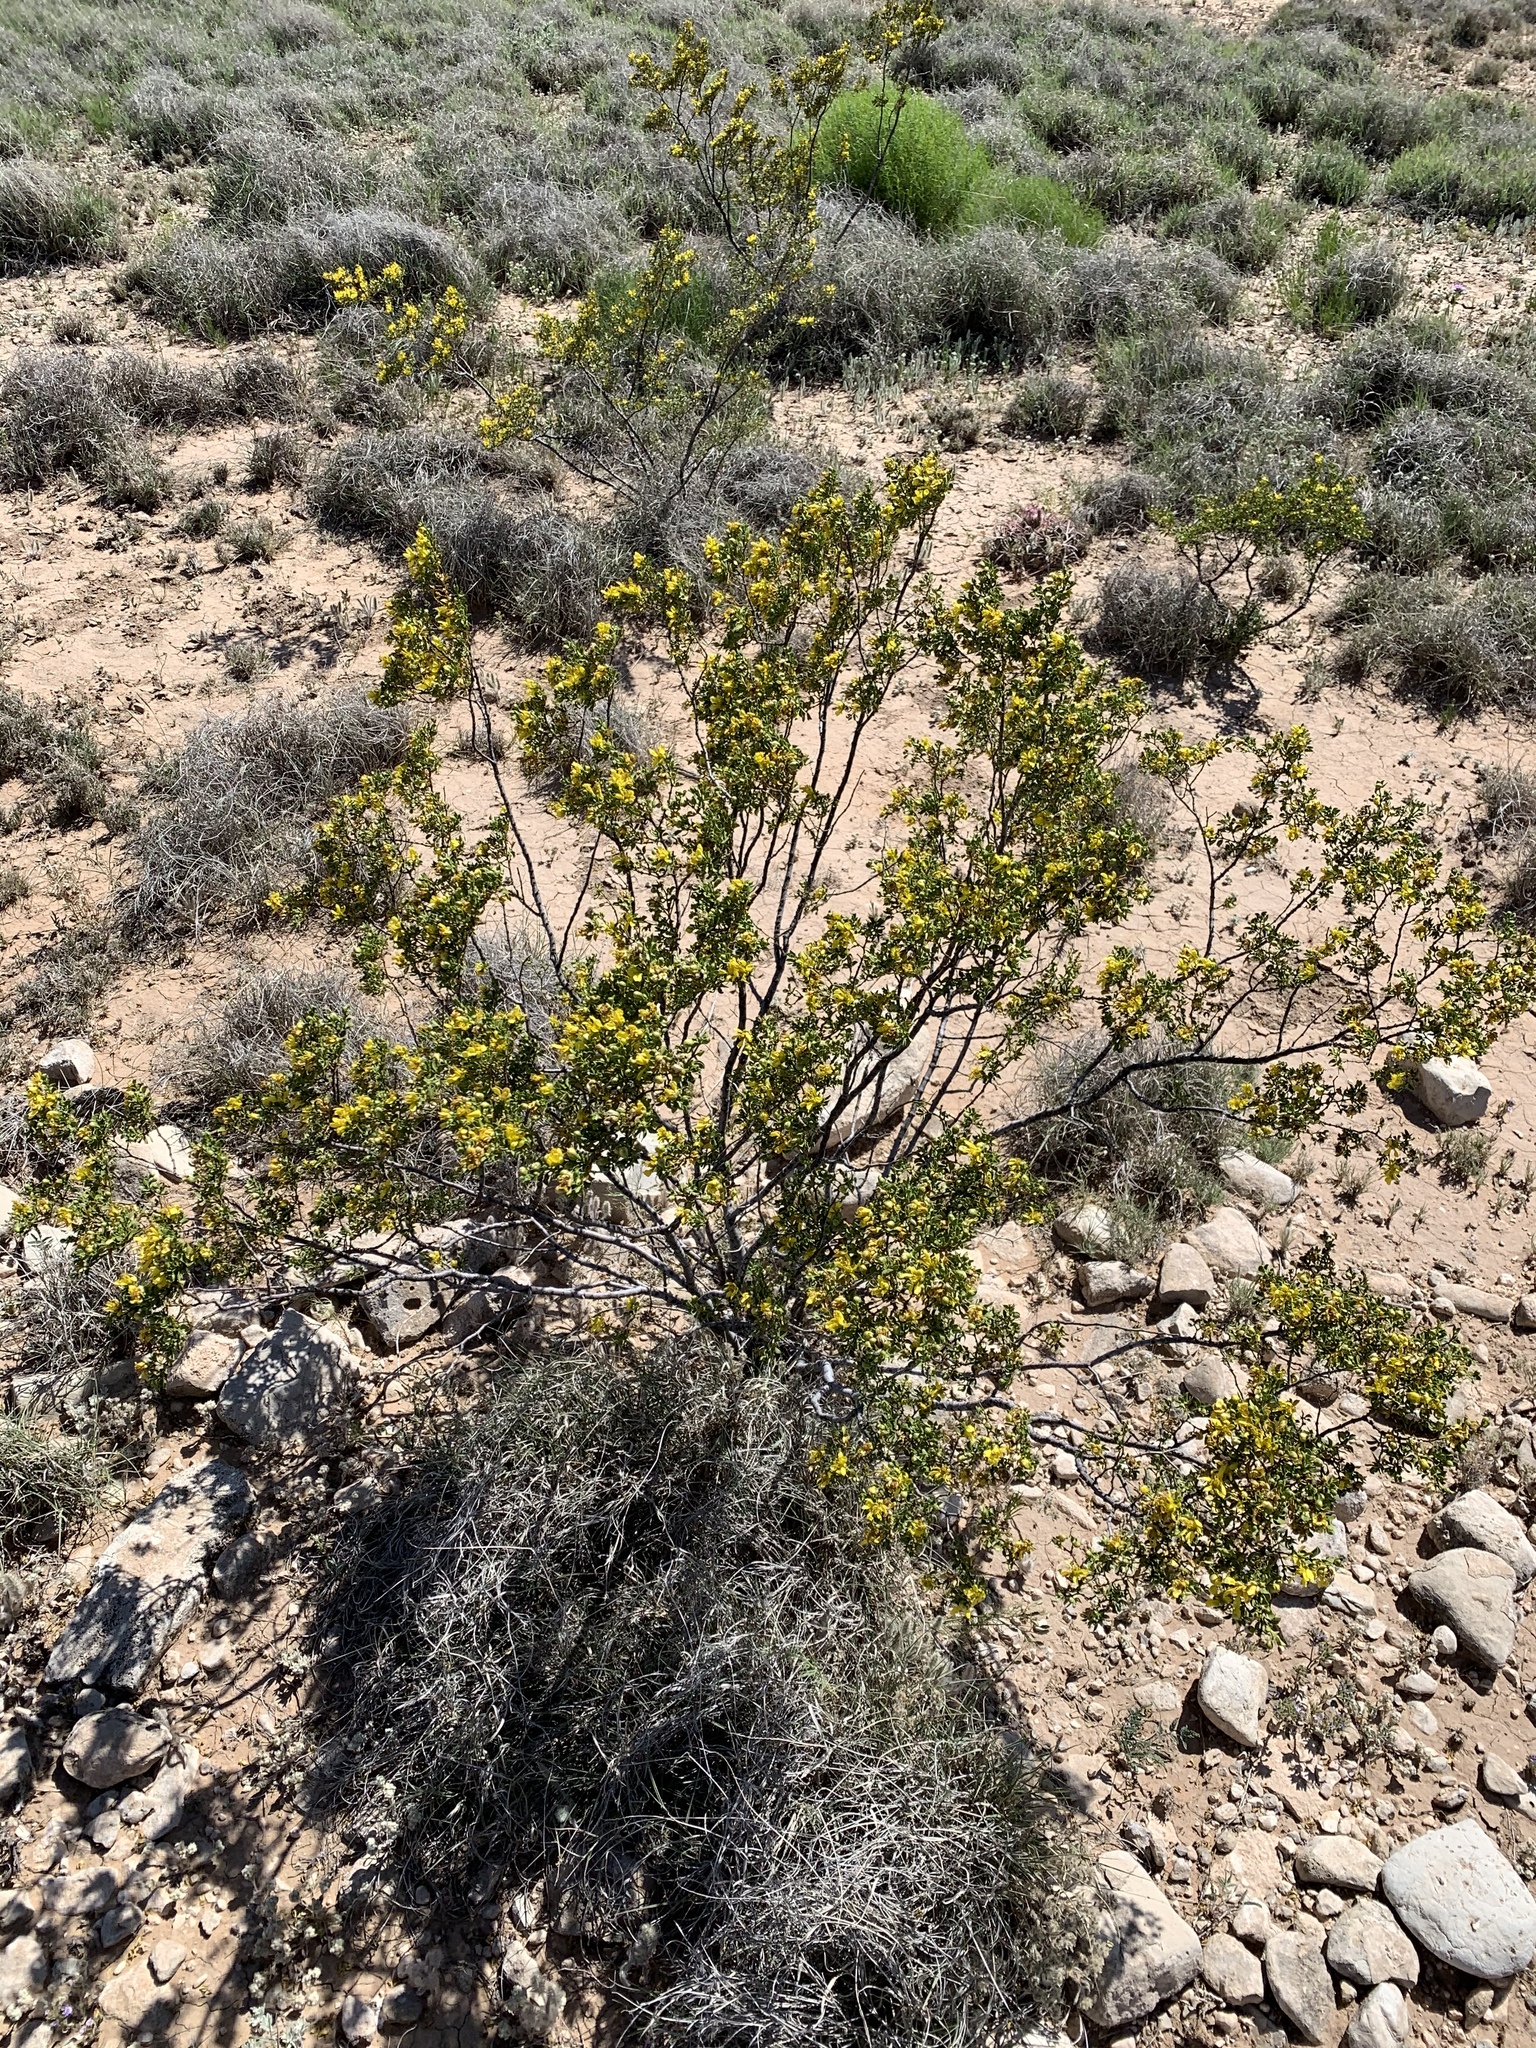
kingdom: Plantae
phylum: Tracheophyta
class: Magnoliopsida
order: Zygophyllales
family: Zygophyllaceae
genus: Larrea
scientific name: Larrea tridentata
